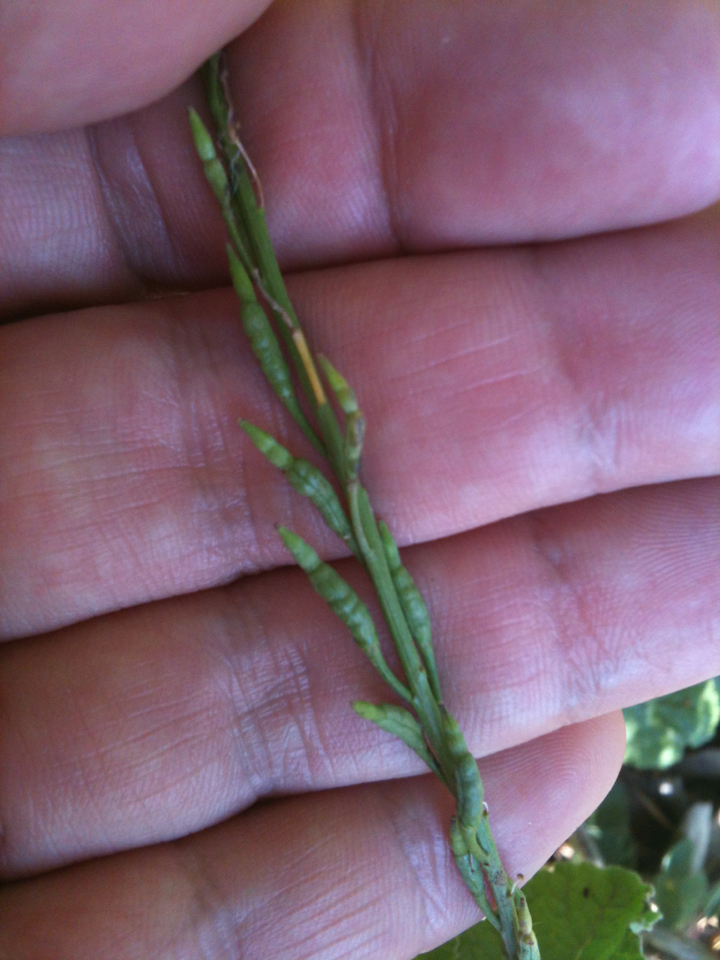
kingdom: Plantae
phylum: Tracheophyta
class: Magnoliopsida
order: Brassicales
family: Brassicaceae
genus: Hirschfeldia
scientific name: Hirschfeldia incana
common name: Hoary mustard
